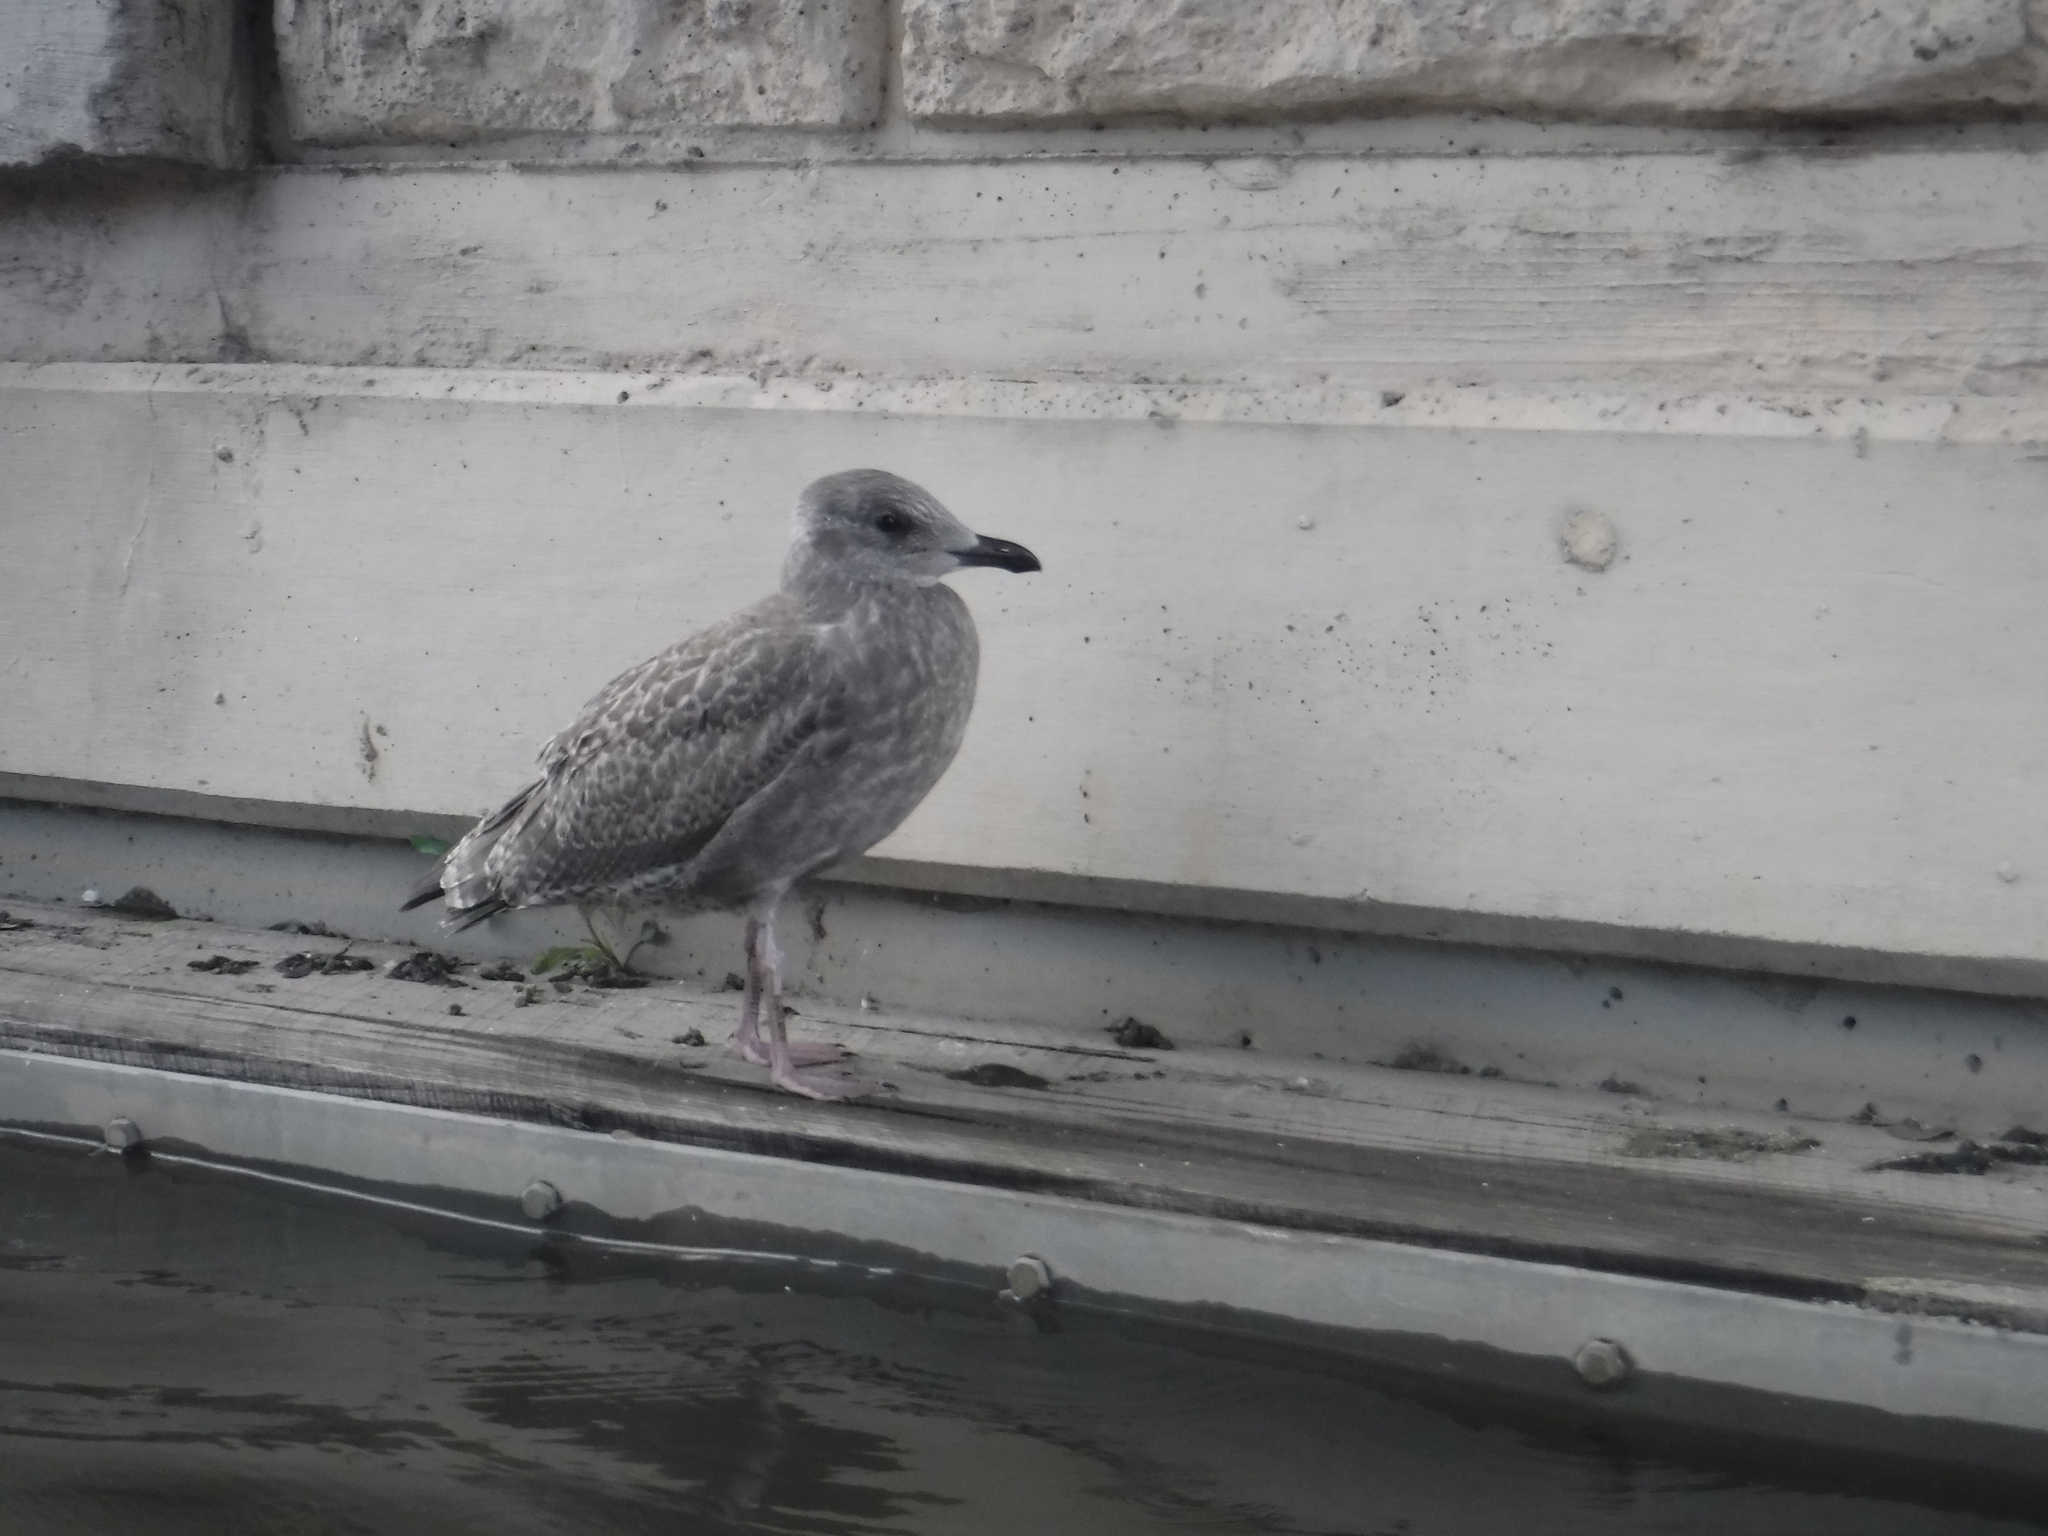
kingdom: Animalia
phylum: Chordata
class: Aves
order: Charadriiformes
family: Laridae
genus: Larus
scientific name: Larus smithsonianus
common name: American herring gull
